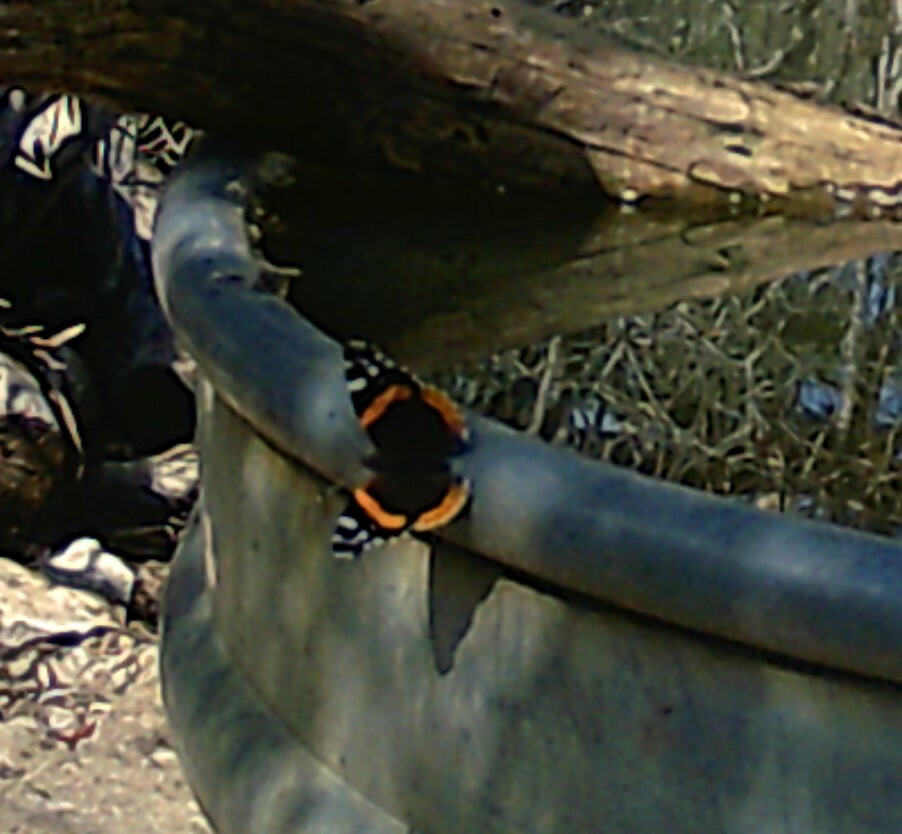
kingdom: Animalia
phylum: Arthropoda
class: Insecta
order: Lepidoptera
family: Nymphalidae
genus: Vanessa
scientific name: Vanessa atalanta
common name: Red admiral
